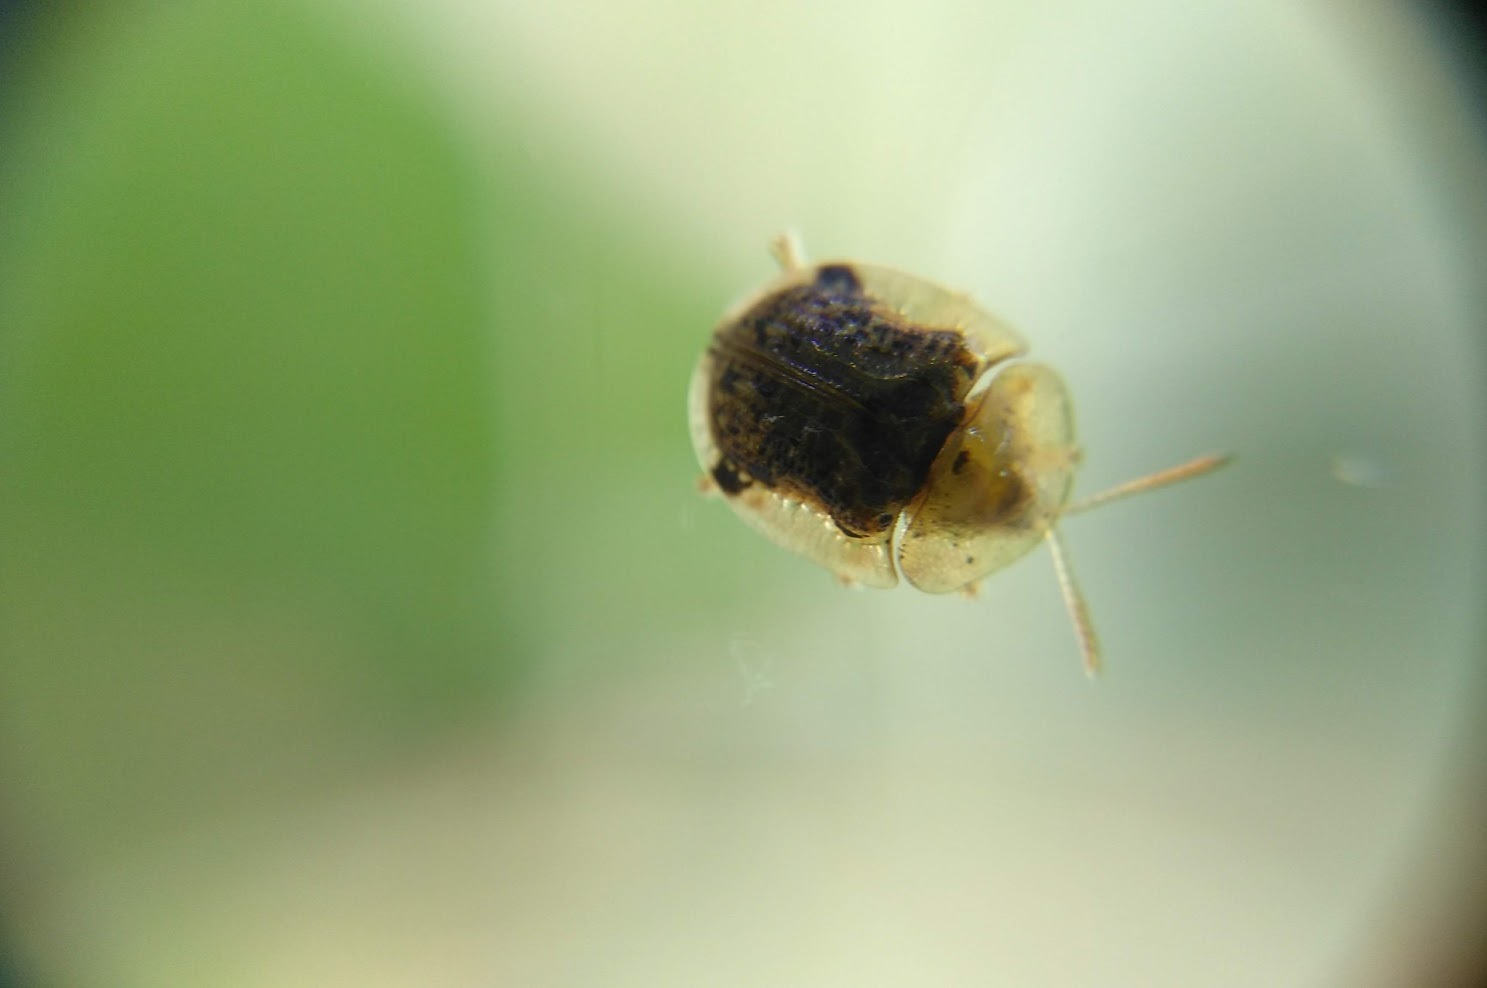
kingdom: Animalia
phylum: Arthropoda
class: Insecta
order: Coleoptera
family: Chrysomelidae
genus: Cassida
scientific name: Cassida piperata
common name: Small tortoise beetle
